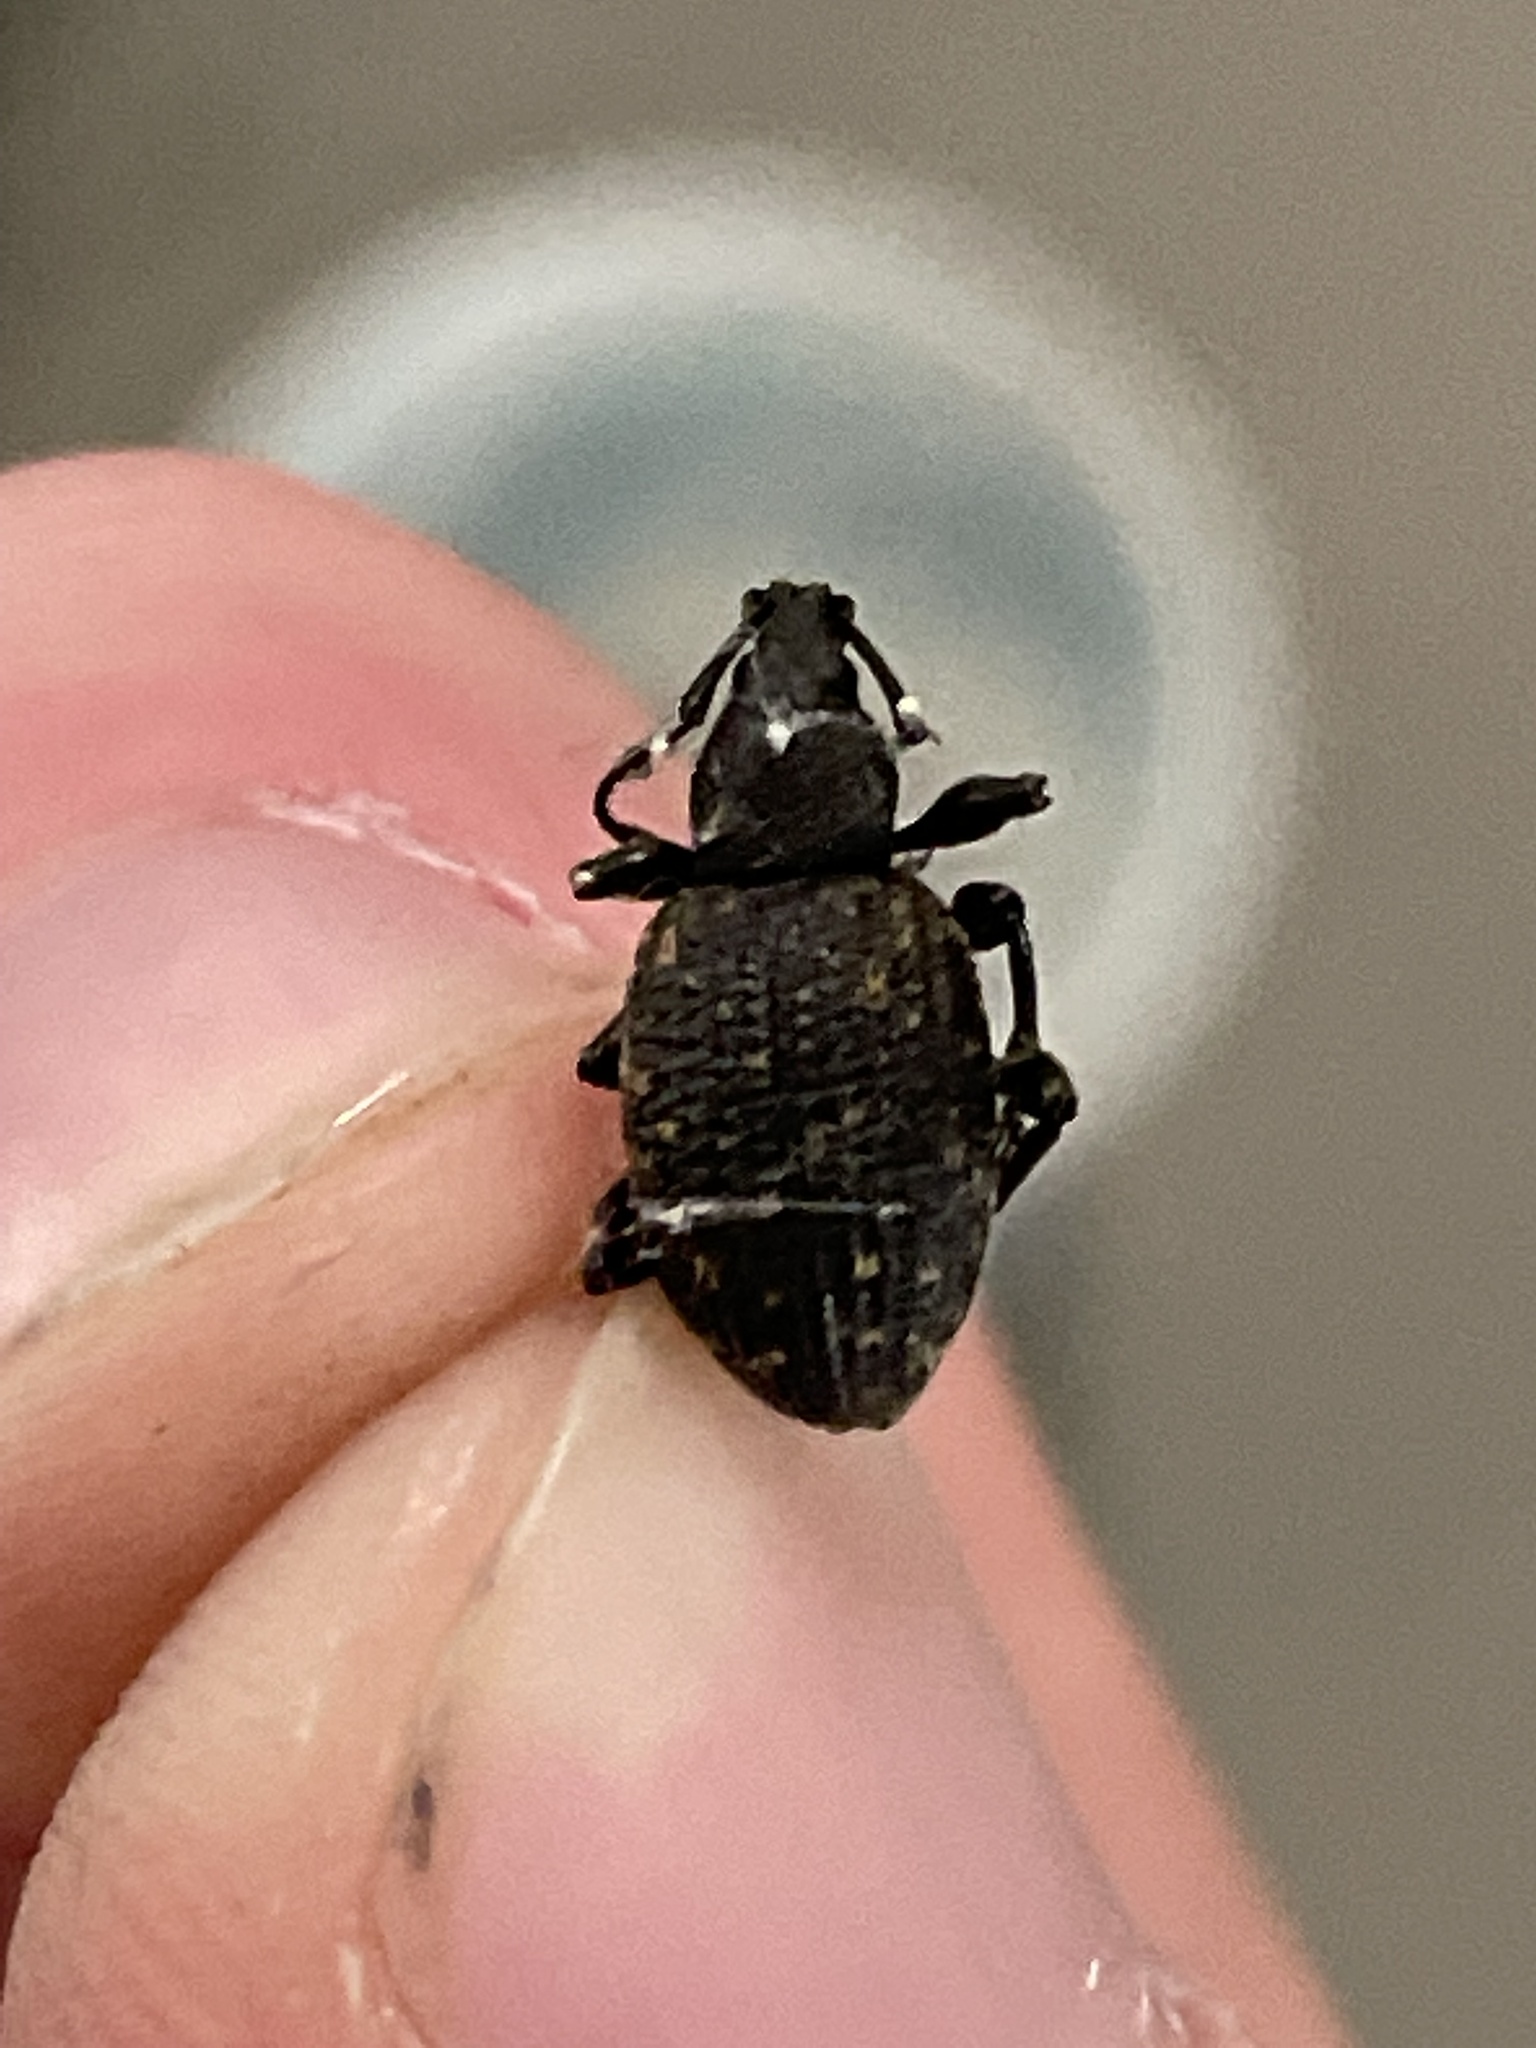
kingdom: Animalia
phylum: Arthropoda
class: Insecta
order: Coleoptera
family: Curculionidae
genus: Otiorhynchus
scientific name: Otiorhynchus sulcatus
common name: Black vine weevil
